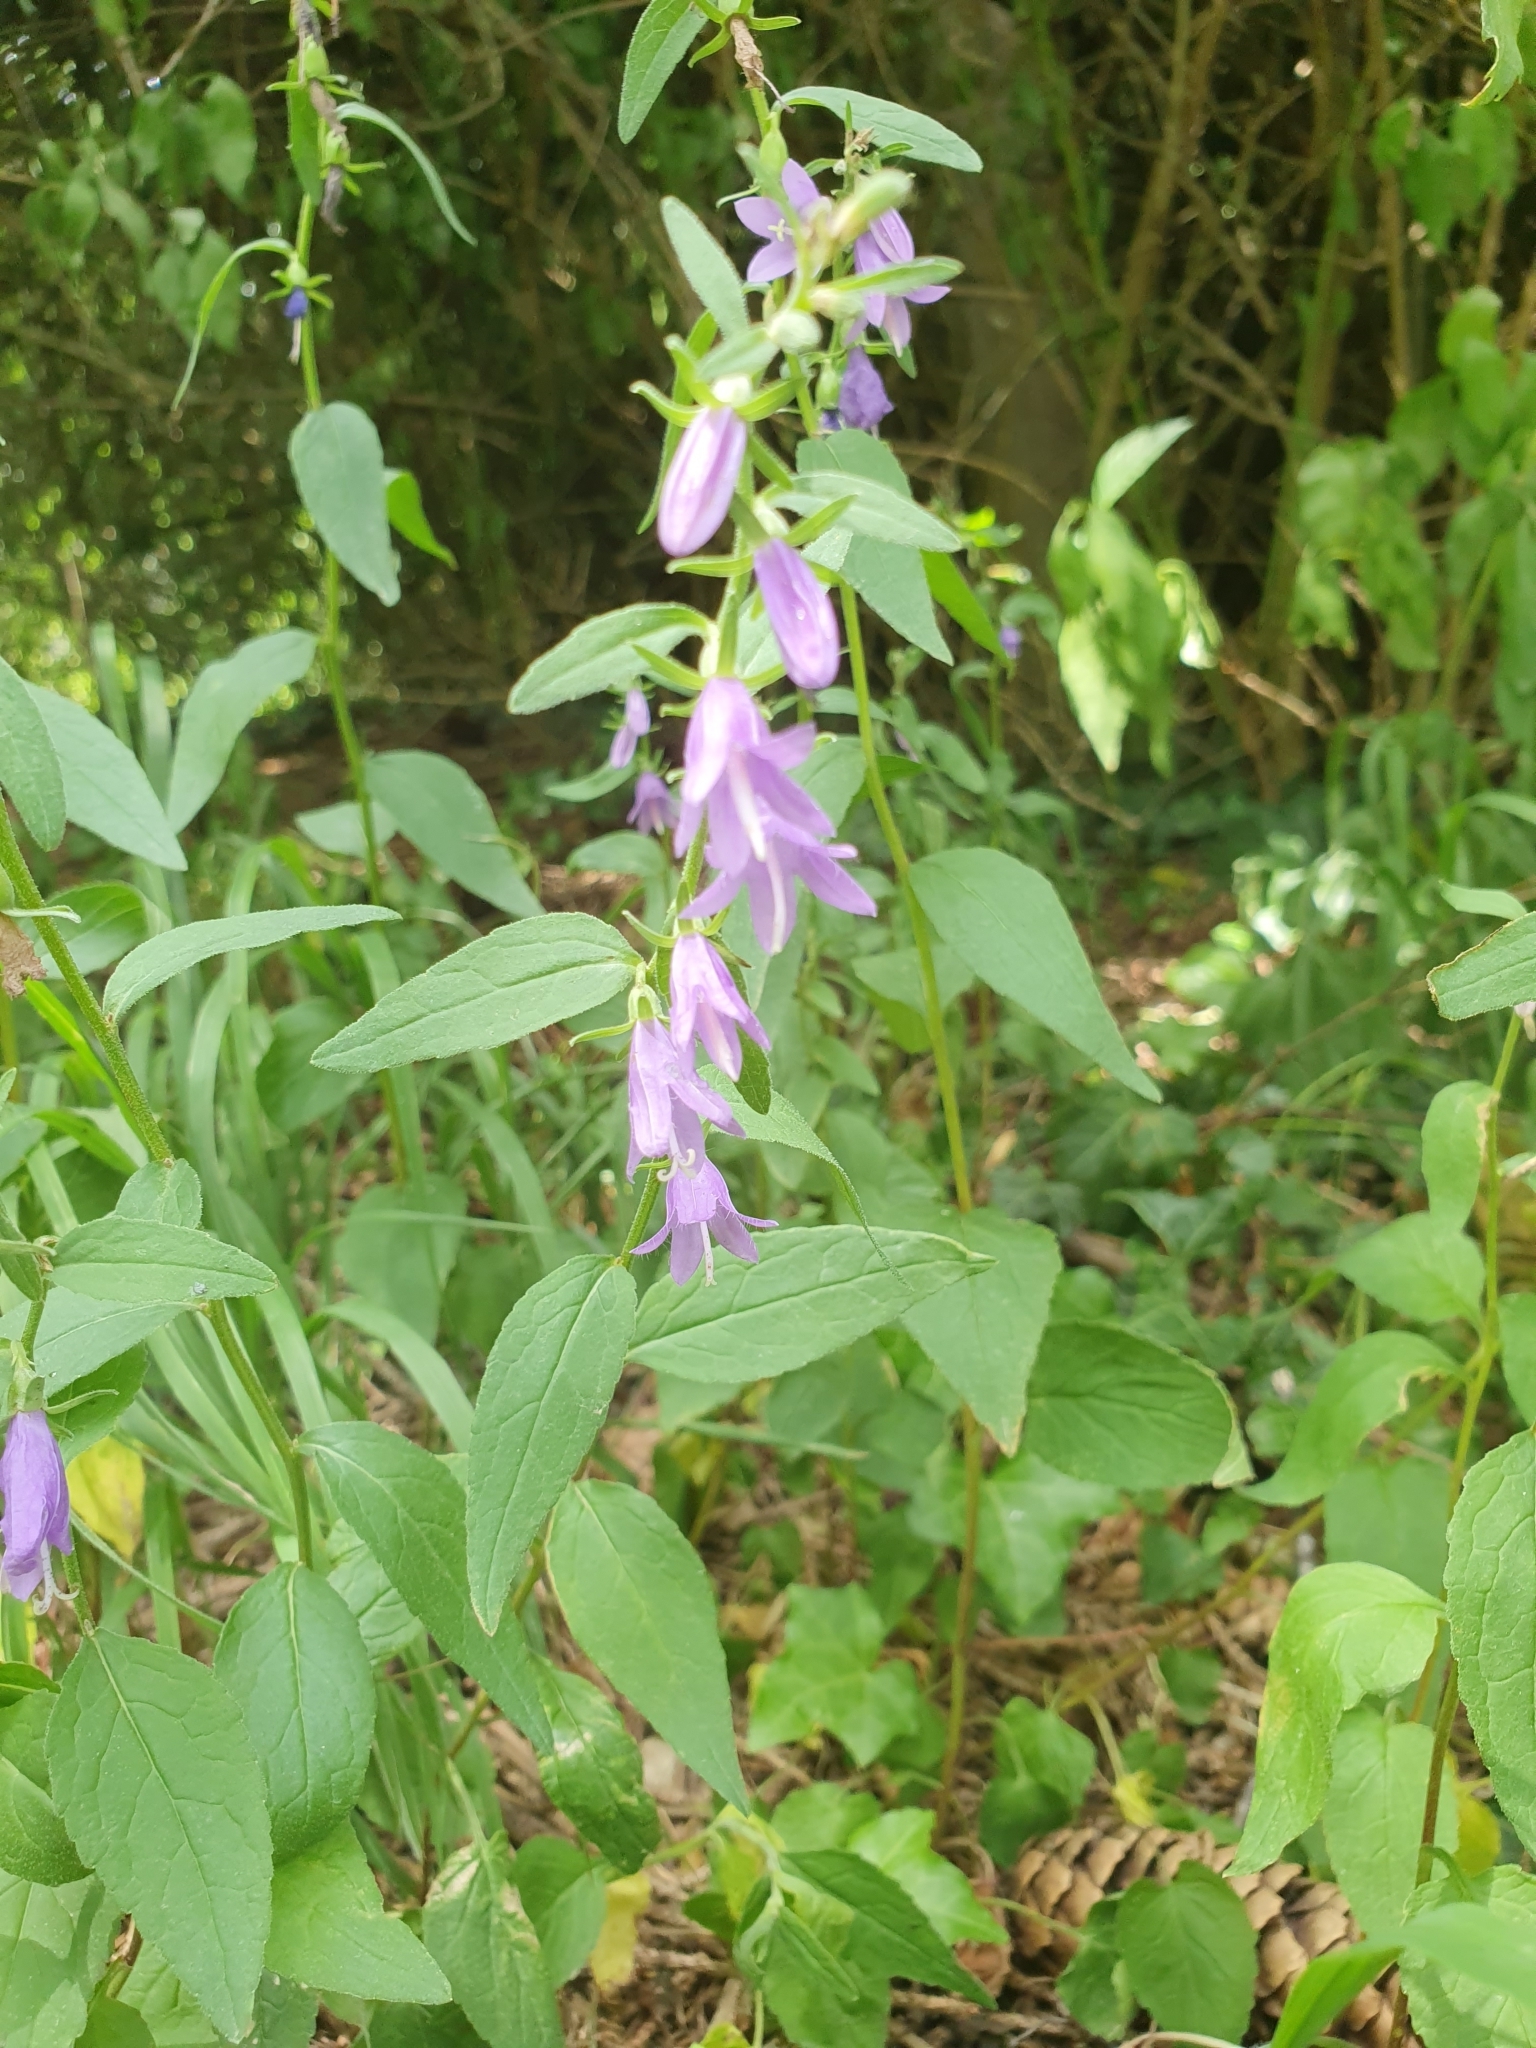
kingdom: Plantae
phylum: Tracheophyta
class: Magnoliopsida
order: Asterales
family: Campanulaceae
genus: Campanula
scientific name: Campanula rapunculoides
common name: Creeping bellflower
